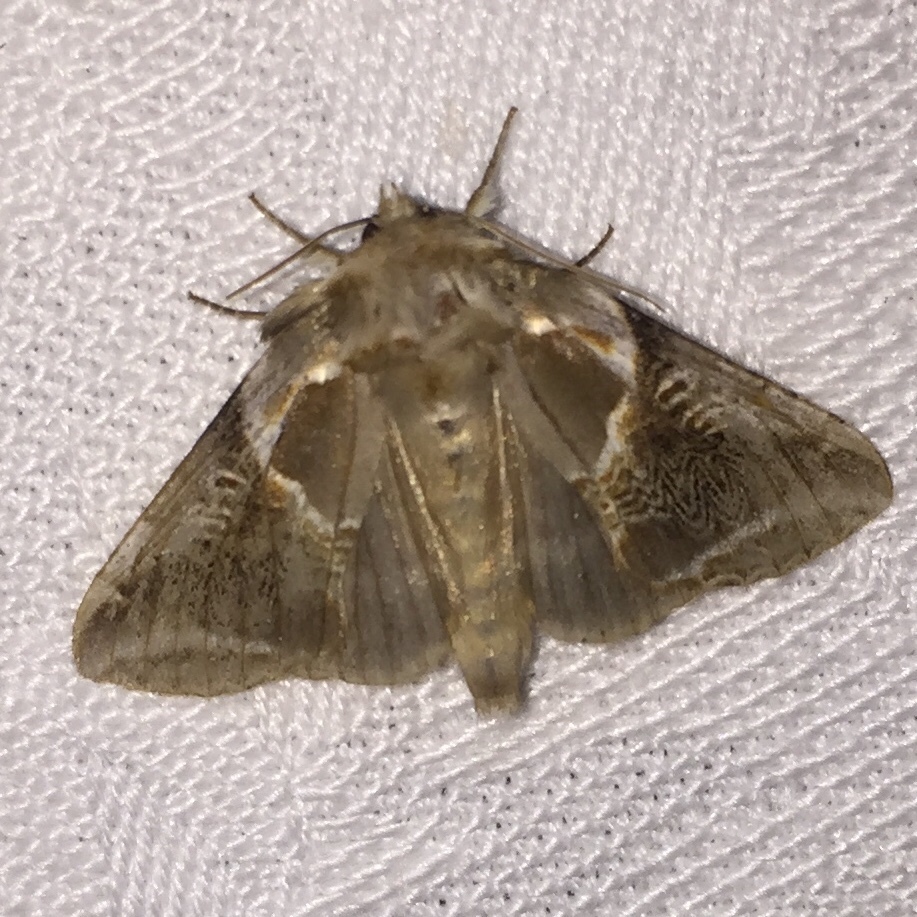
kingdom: Animalia
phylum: Arthropoda
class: Insecta
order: Lepidoptera
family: Drepanidae
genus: Habrosyne
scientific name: Habrosyne scripta
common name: Lettered habrosyne moth
